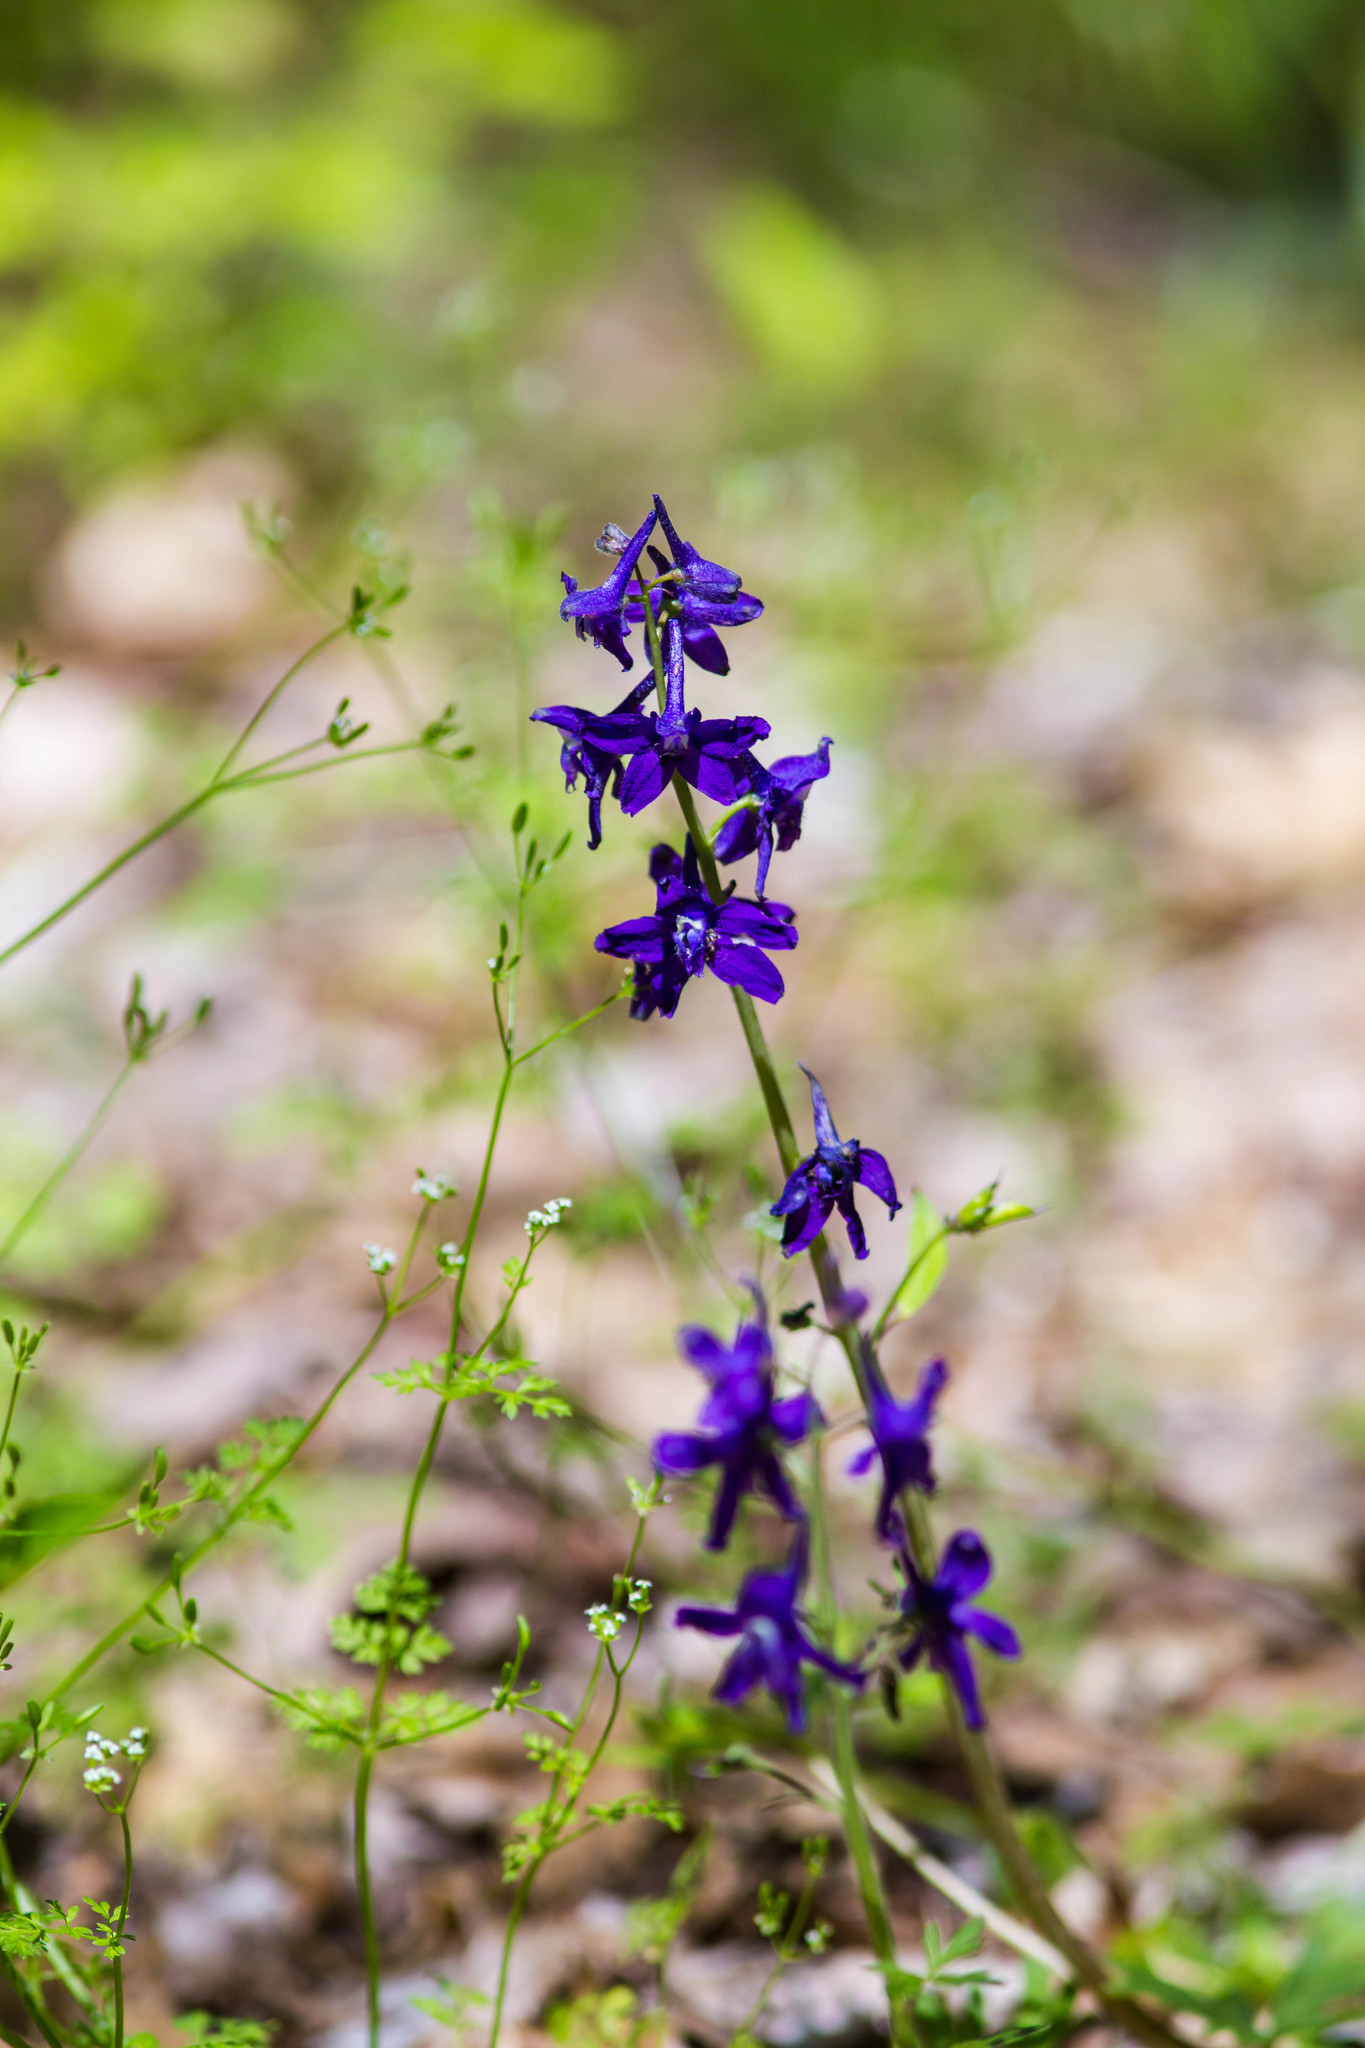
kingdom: Plantae
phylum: Tracheophyta
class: Magnoliopsida
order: Ranunculales
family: Ranunculaceae
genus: Delphinium
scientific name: Delphinium tricorne
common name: Dwarf larkspur
